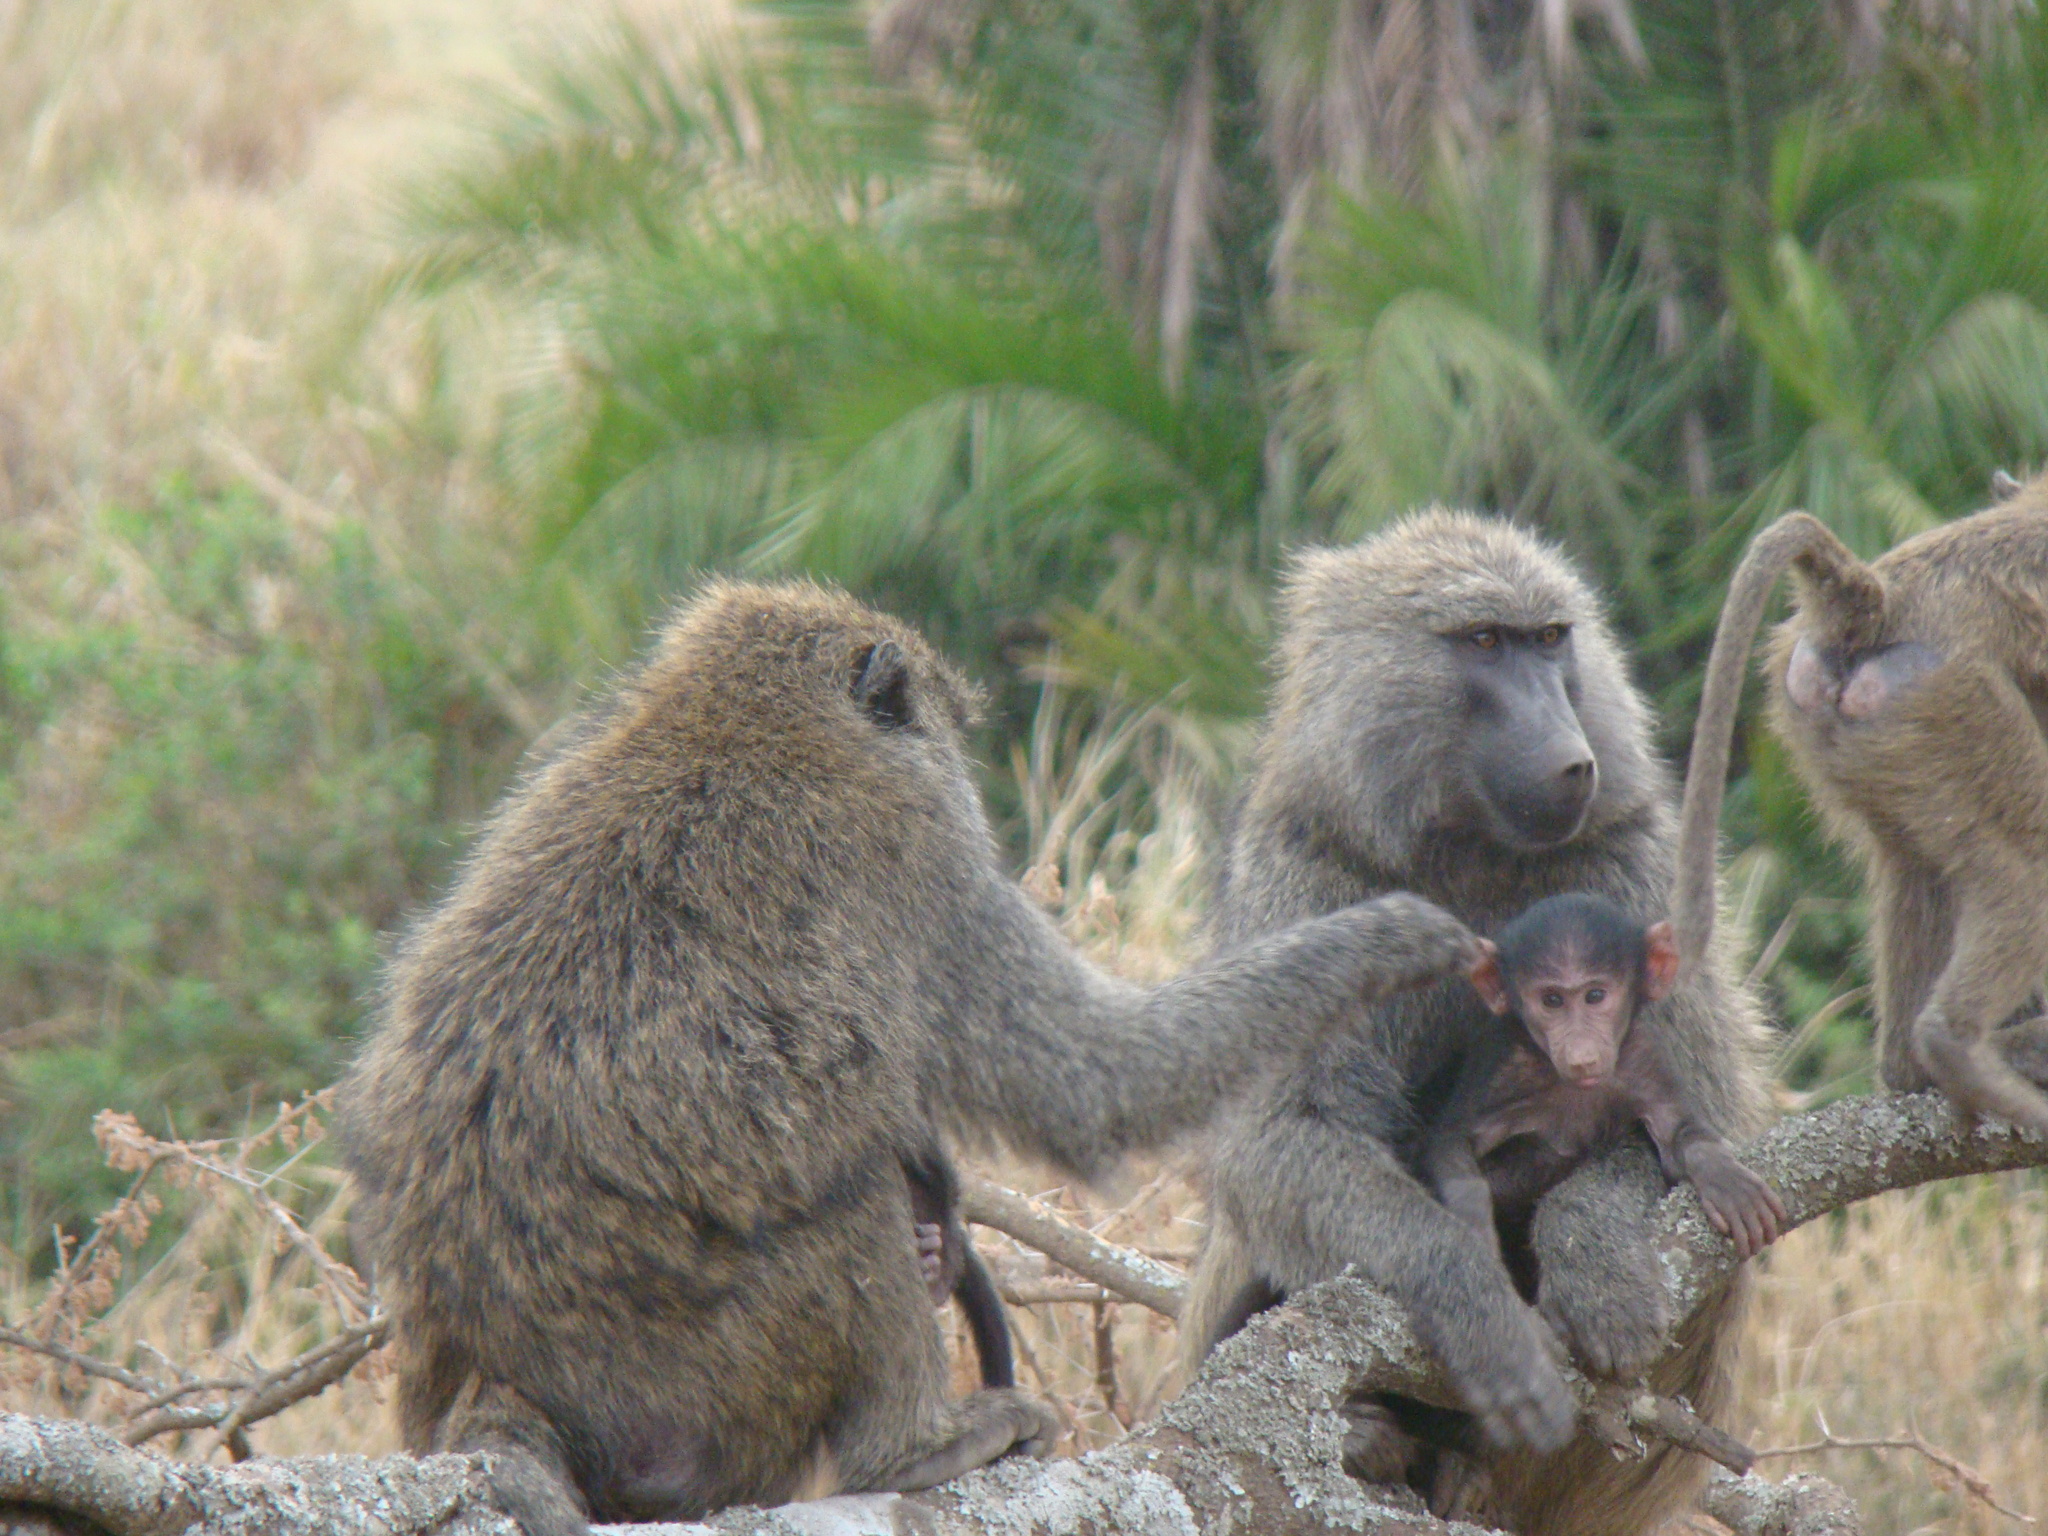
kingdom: Animalia
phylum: Chordata
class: Mammalia
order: Primates
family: Cercopithecidae
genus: Papio
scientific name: Papio anubis
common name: Olive baboon
